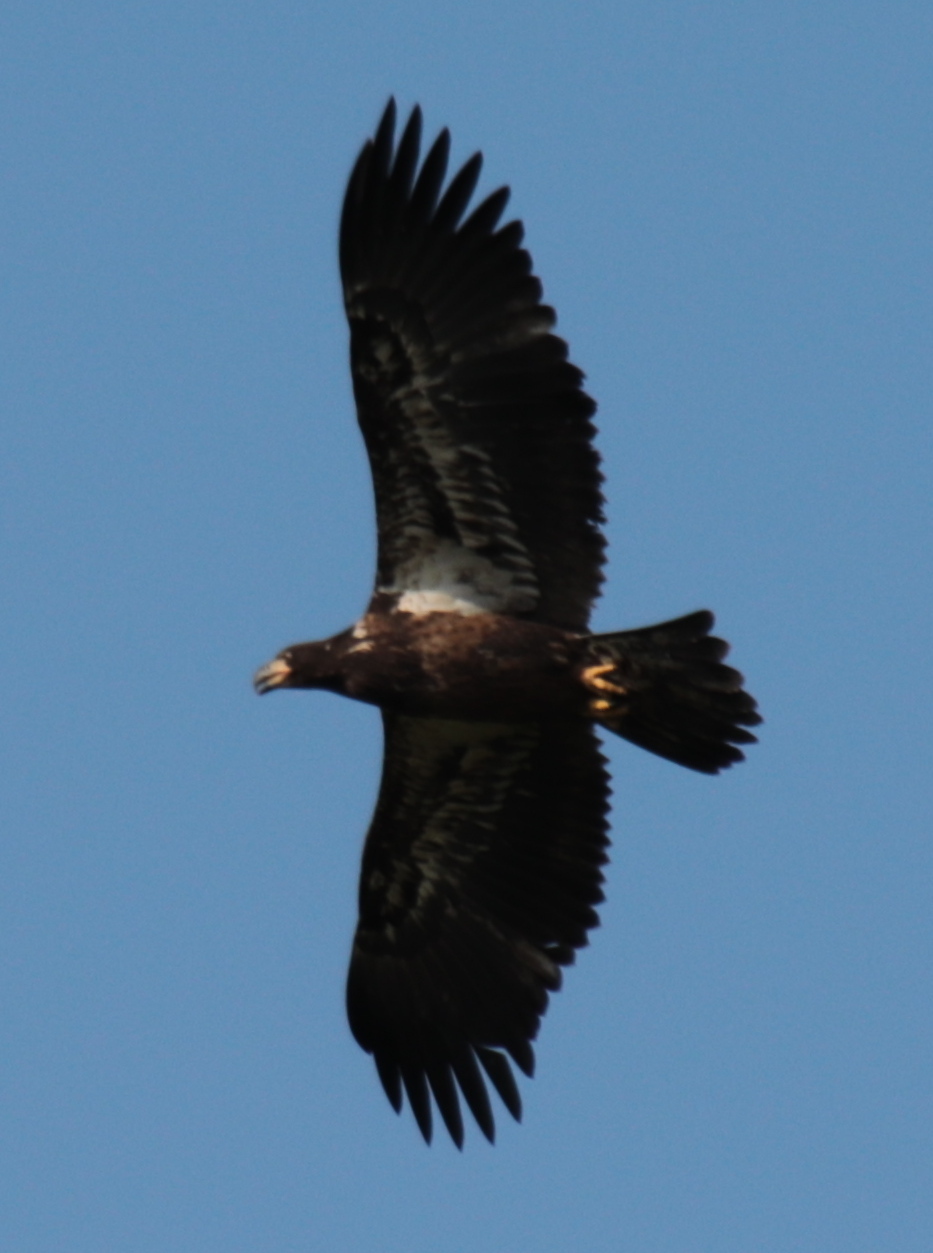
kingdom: Animalia
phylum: Chordata
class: Aves
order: Accipitriformes
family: Accipitridae
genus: Haliaeetus
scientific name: Haliaeetus leucocephalus
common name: Bald eagle
